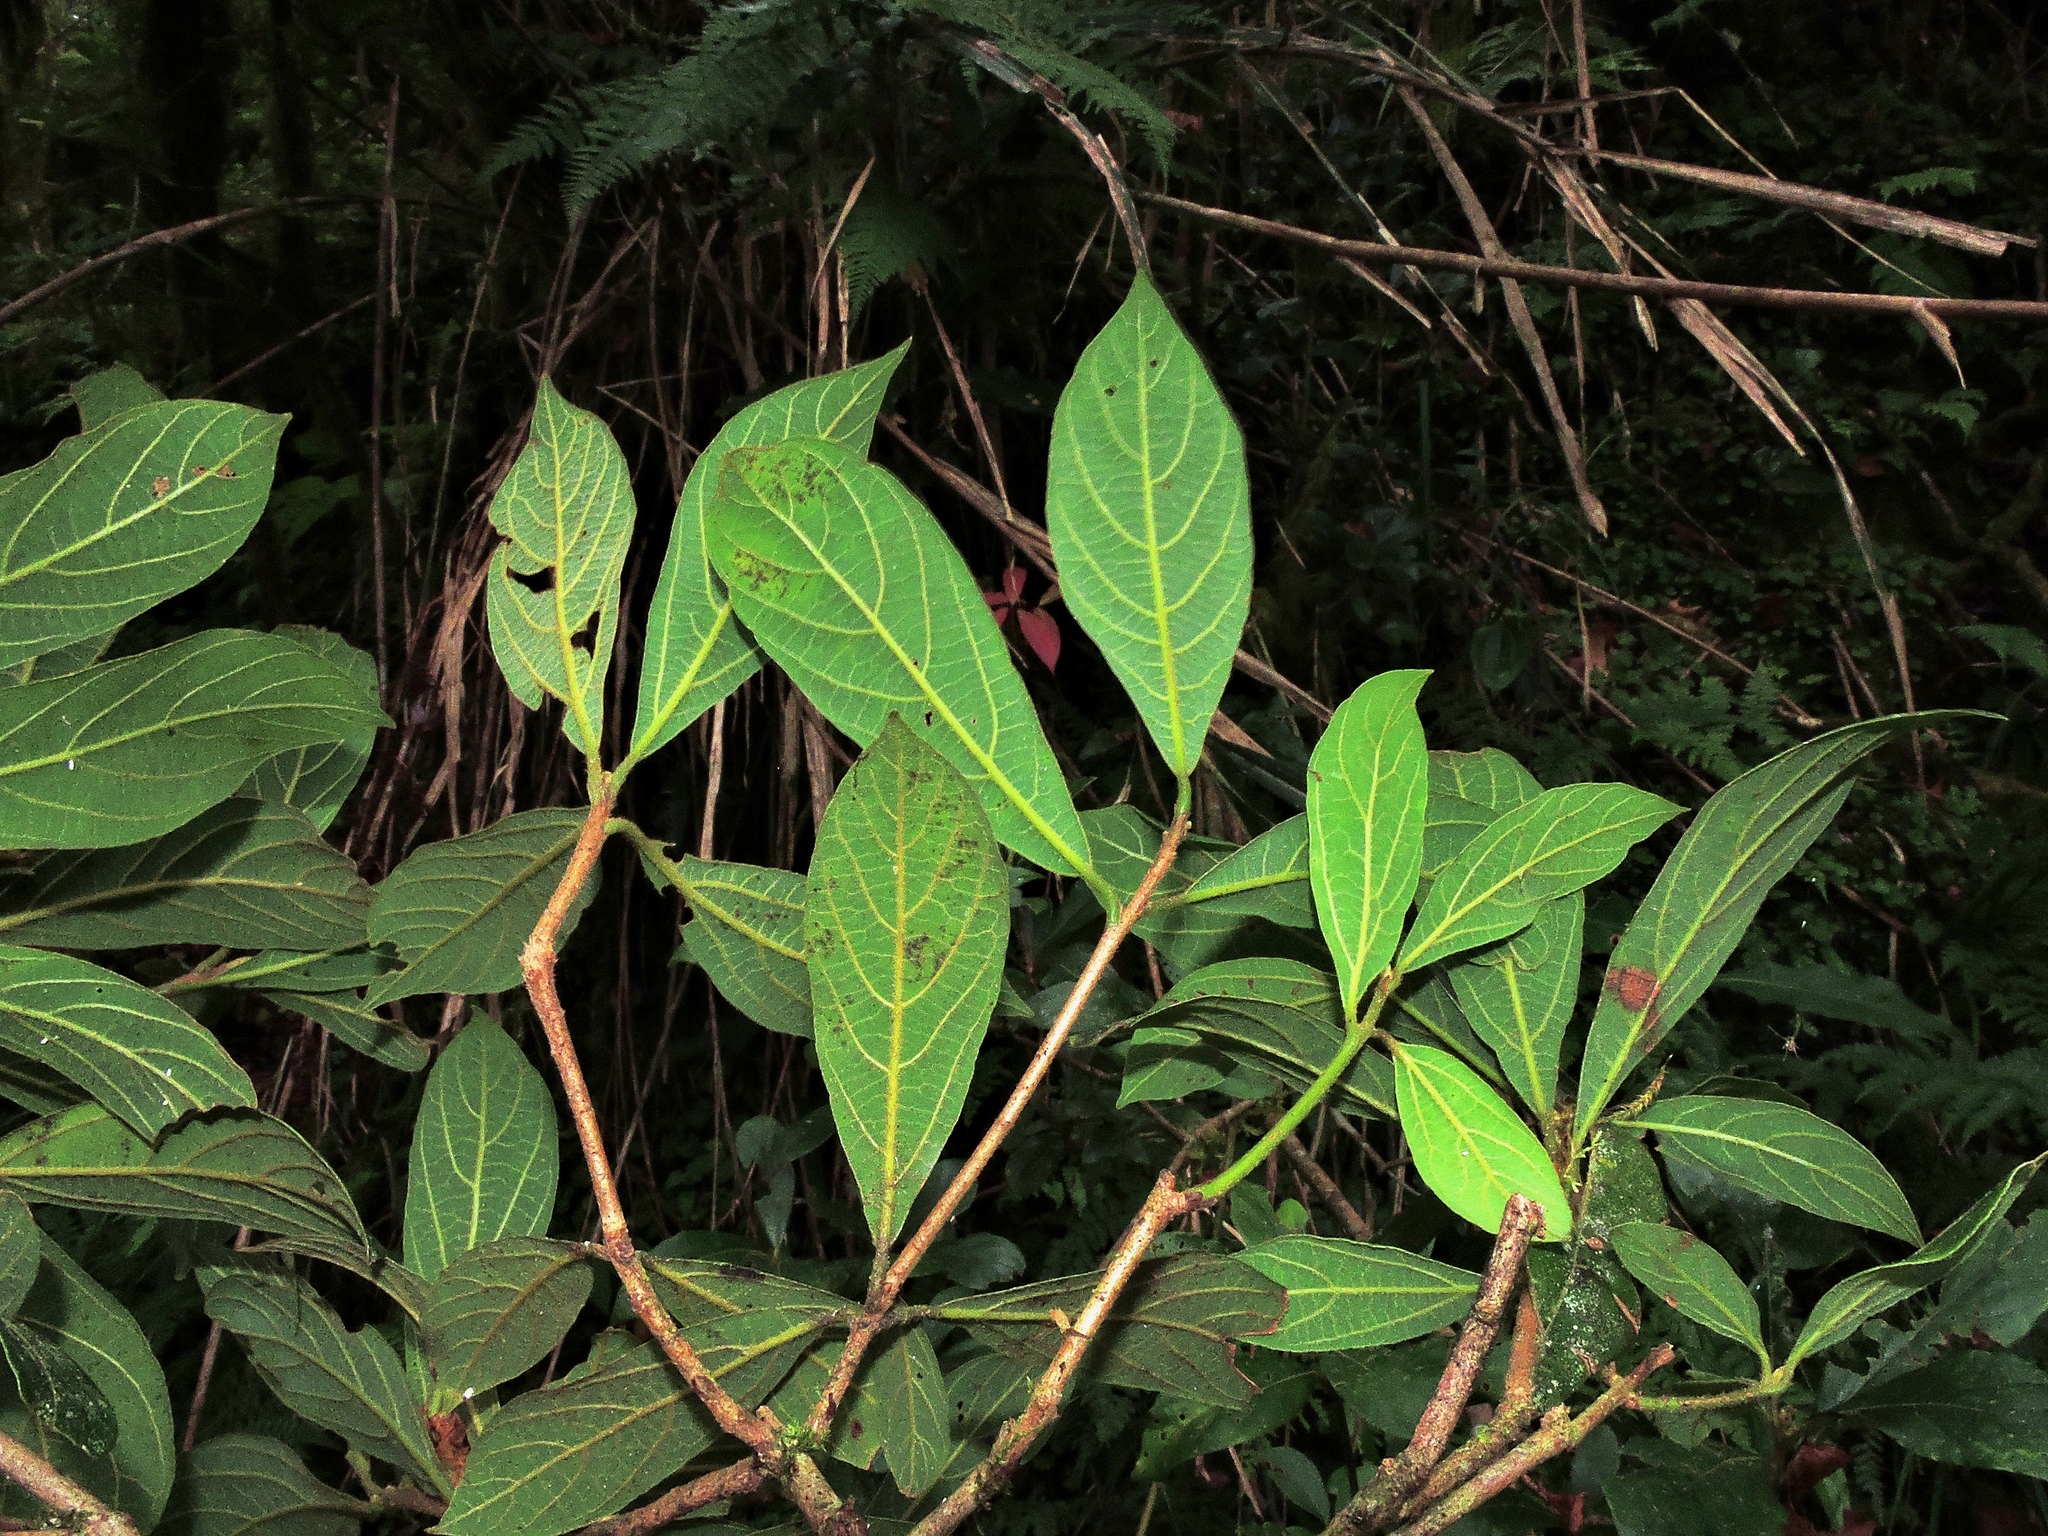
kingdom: Plantae
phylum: Tracheophyta
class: Magnoliopsida
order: Laurales
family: Lauraceae
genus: Actinodaphne
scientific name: Actinodaphne mushaensis
